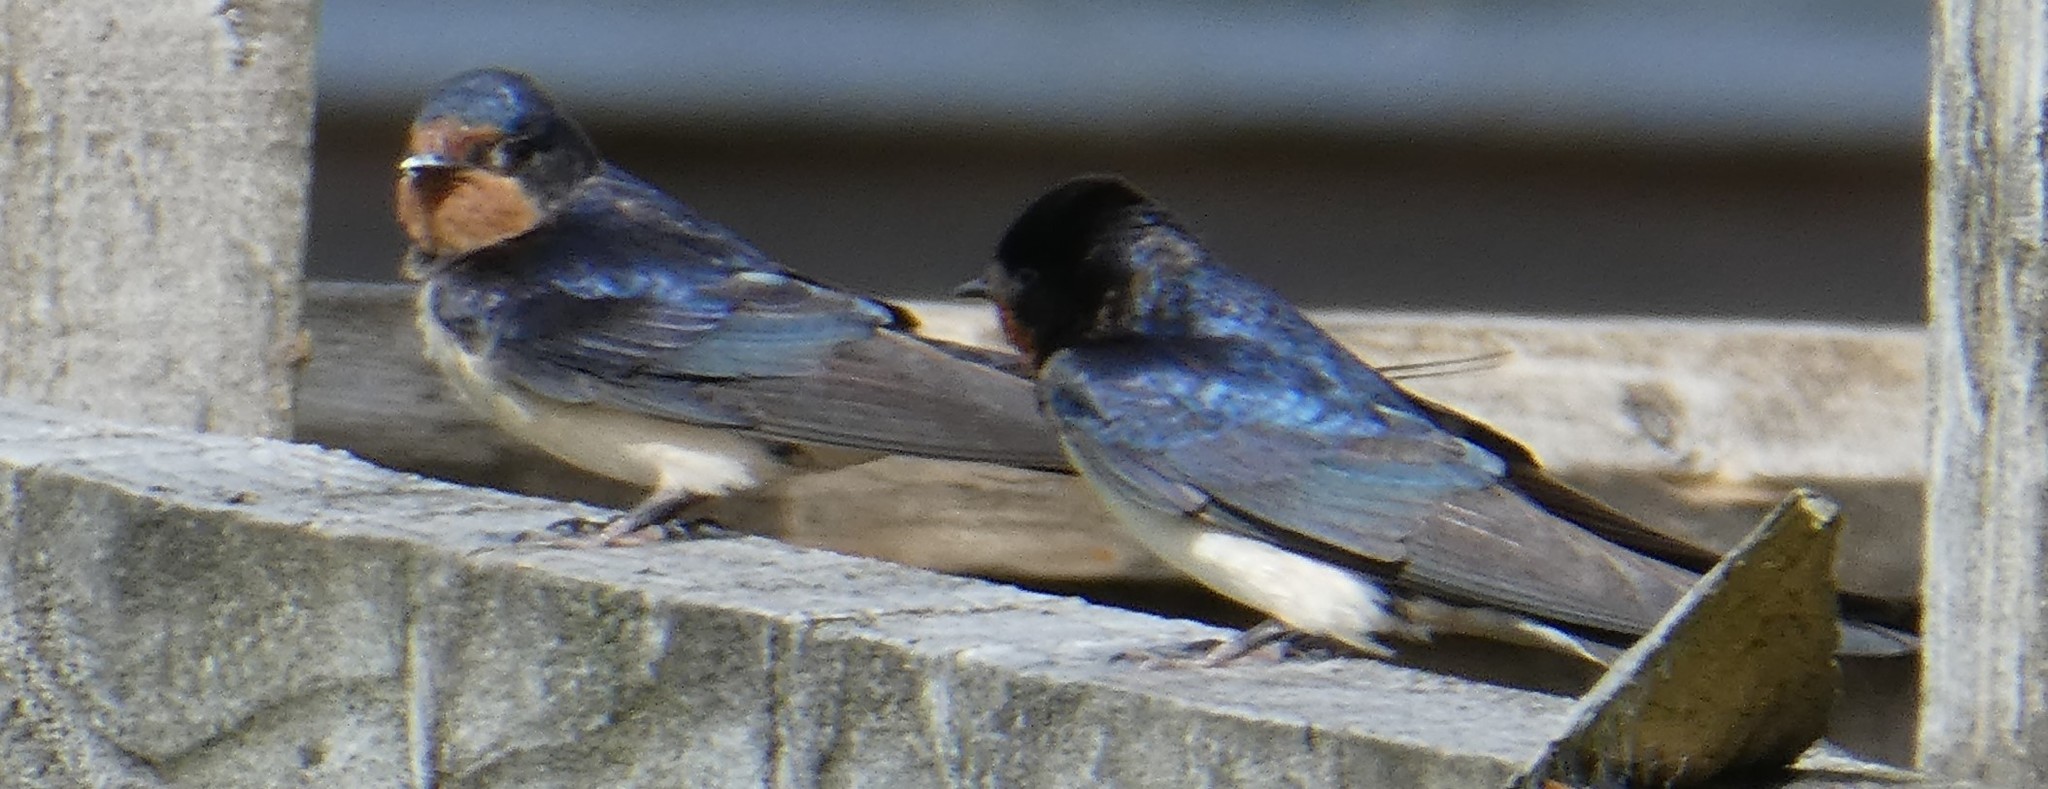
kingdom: Animalia
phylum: Chordata
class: Aves
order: Passeriformes
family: Hirundinidae
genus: Hirundo
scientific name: Hirundo rustica
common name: Barn swallow
